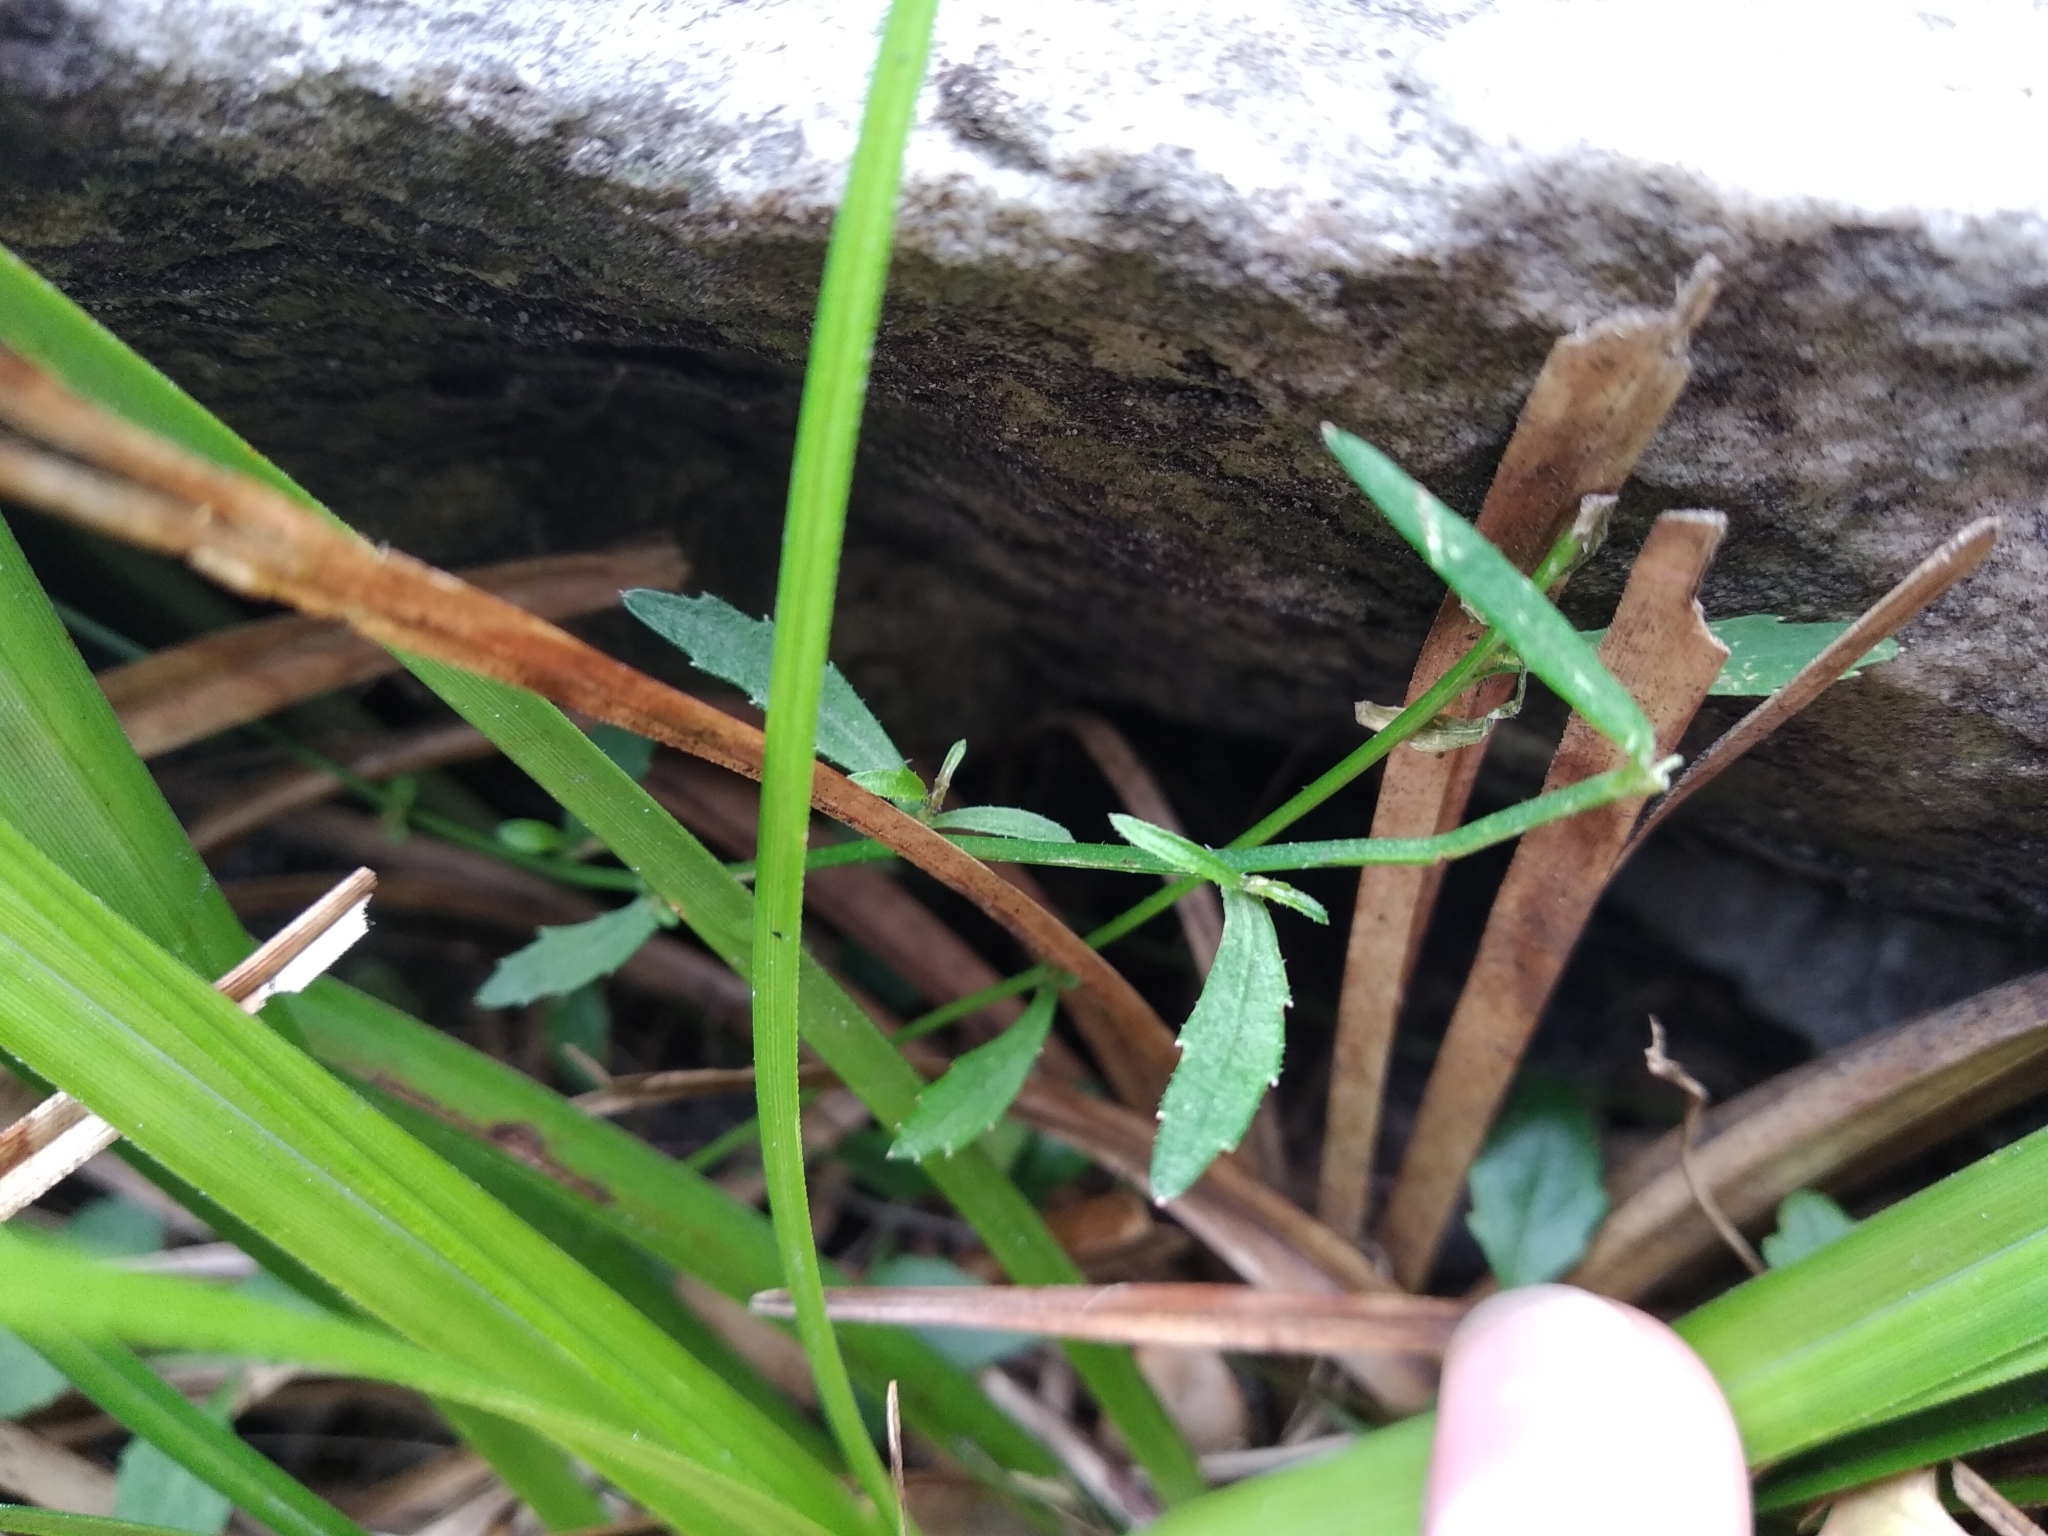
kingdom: Plantae
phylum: Tracheophyta
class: Magnoliopsida
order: Asterales
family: Campanulaceae
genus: Lobelia
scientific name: Lobelia pubescens
